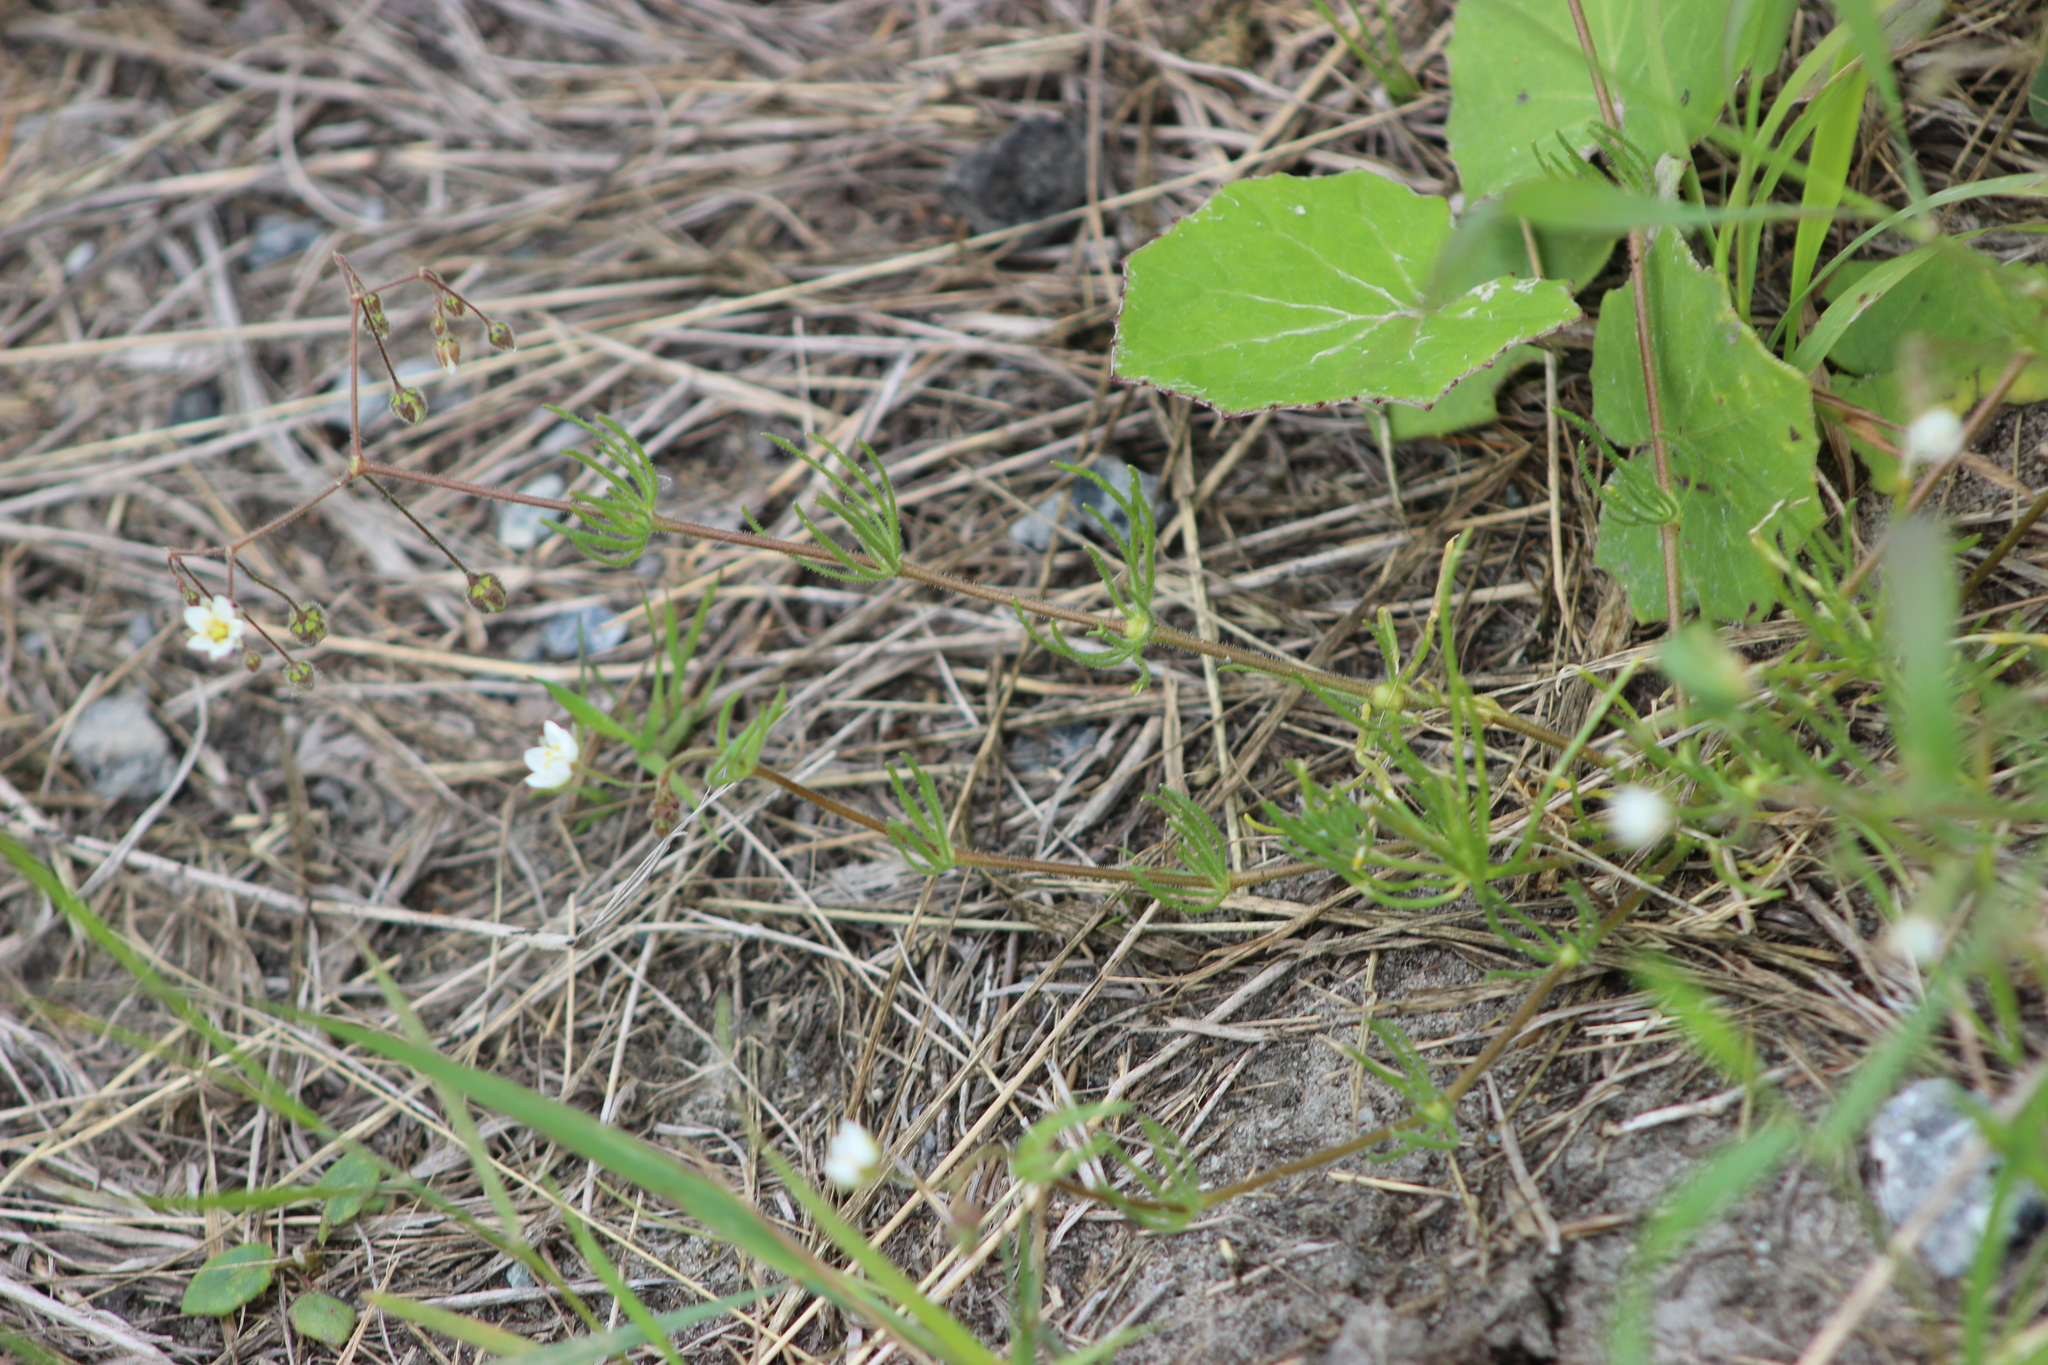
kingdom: Plantae
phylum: Tracheophyta
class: Magnoliopsida
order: Caryophyllales
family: Caryophyllaceae
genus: Spergula
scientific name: Spergula arvensis
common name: Corn spurrey
